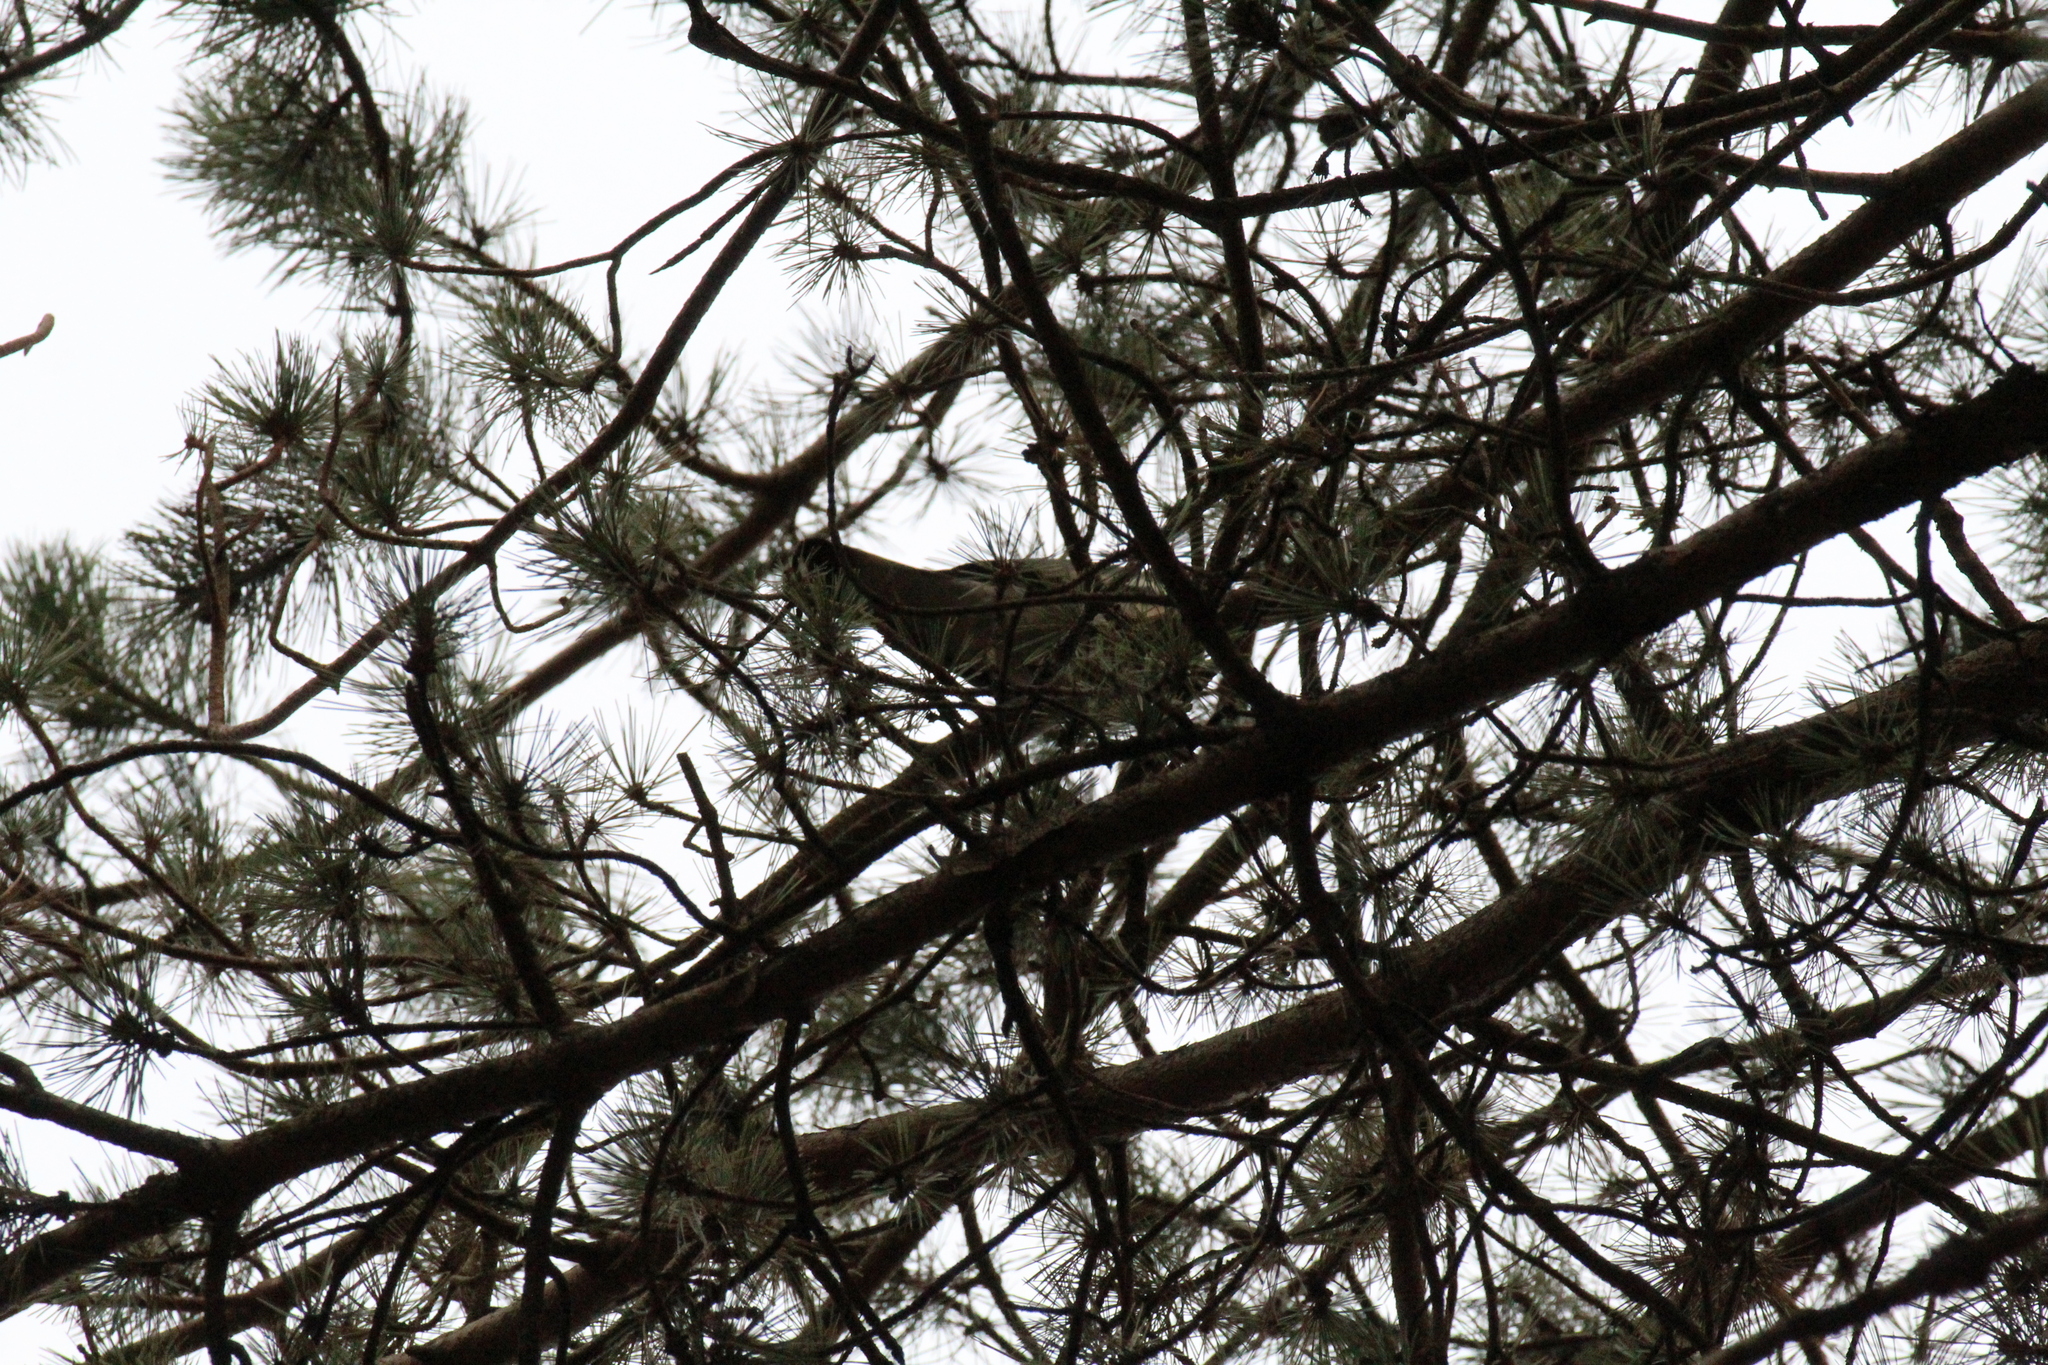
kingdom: Animalia
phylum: Chordata
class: Aves
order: Columbiformes
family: Columbidae
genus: Columba
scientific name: Columba palumbus
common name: Common wood pigeon
